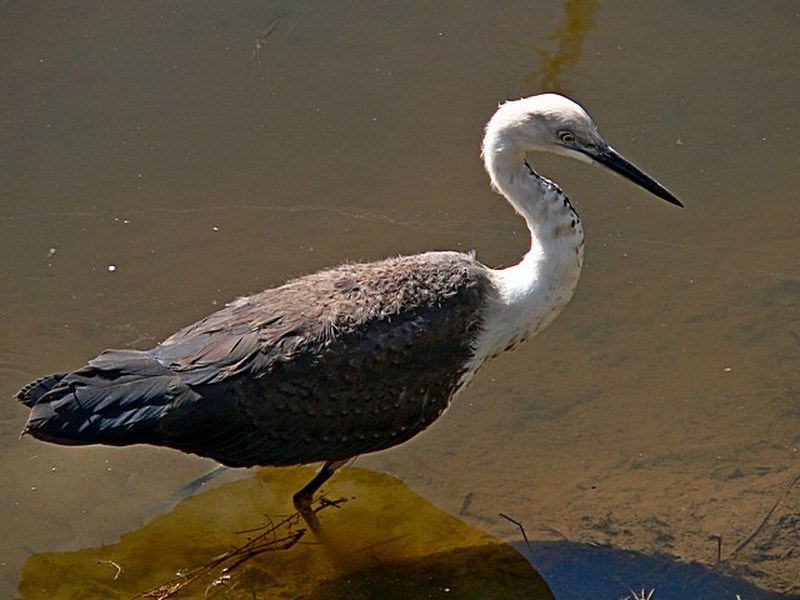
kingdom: Animalia
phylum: Chordata
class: Aves
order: Pelecaniformes
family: Ardeidae
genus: Ardea
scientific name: Ardea pacifica
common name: White-necked heron
